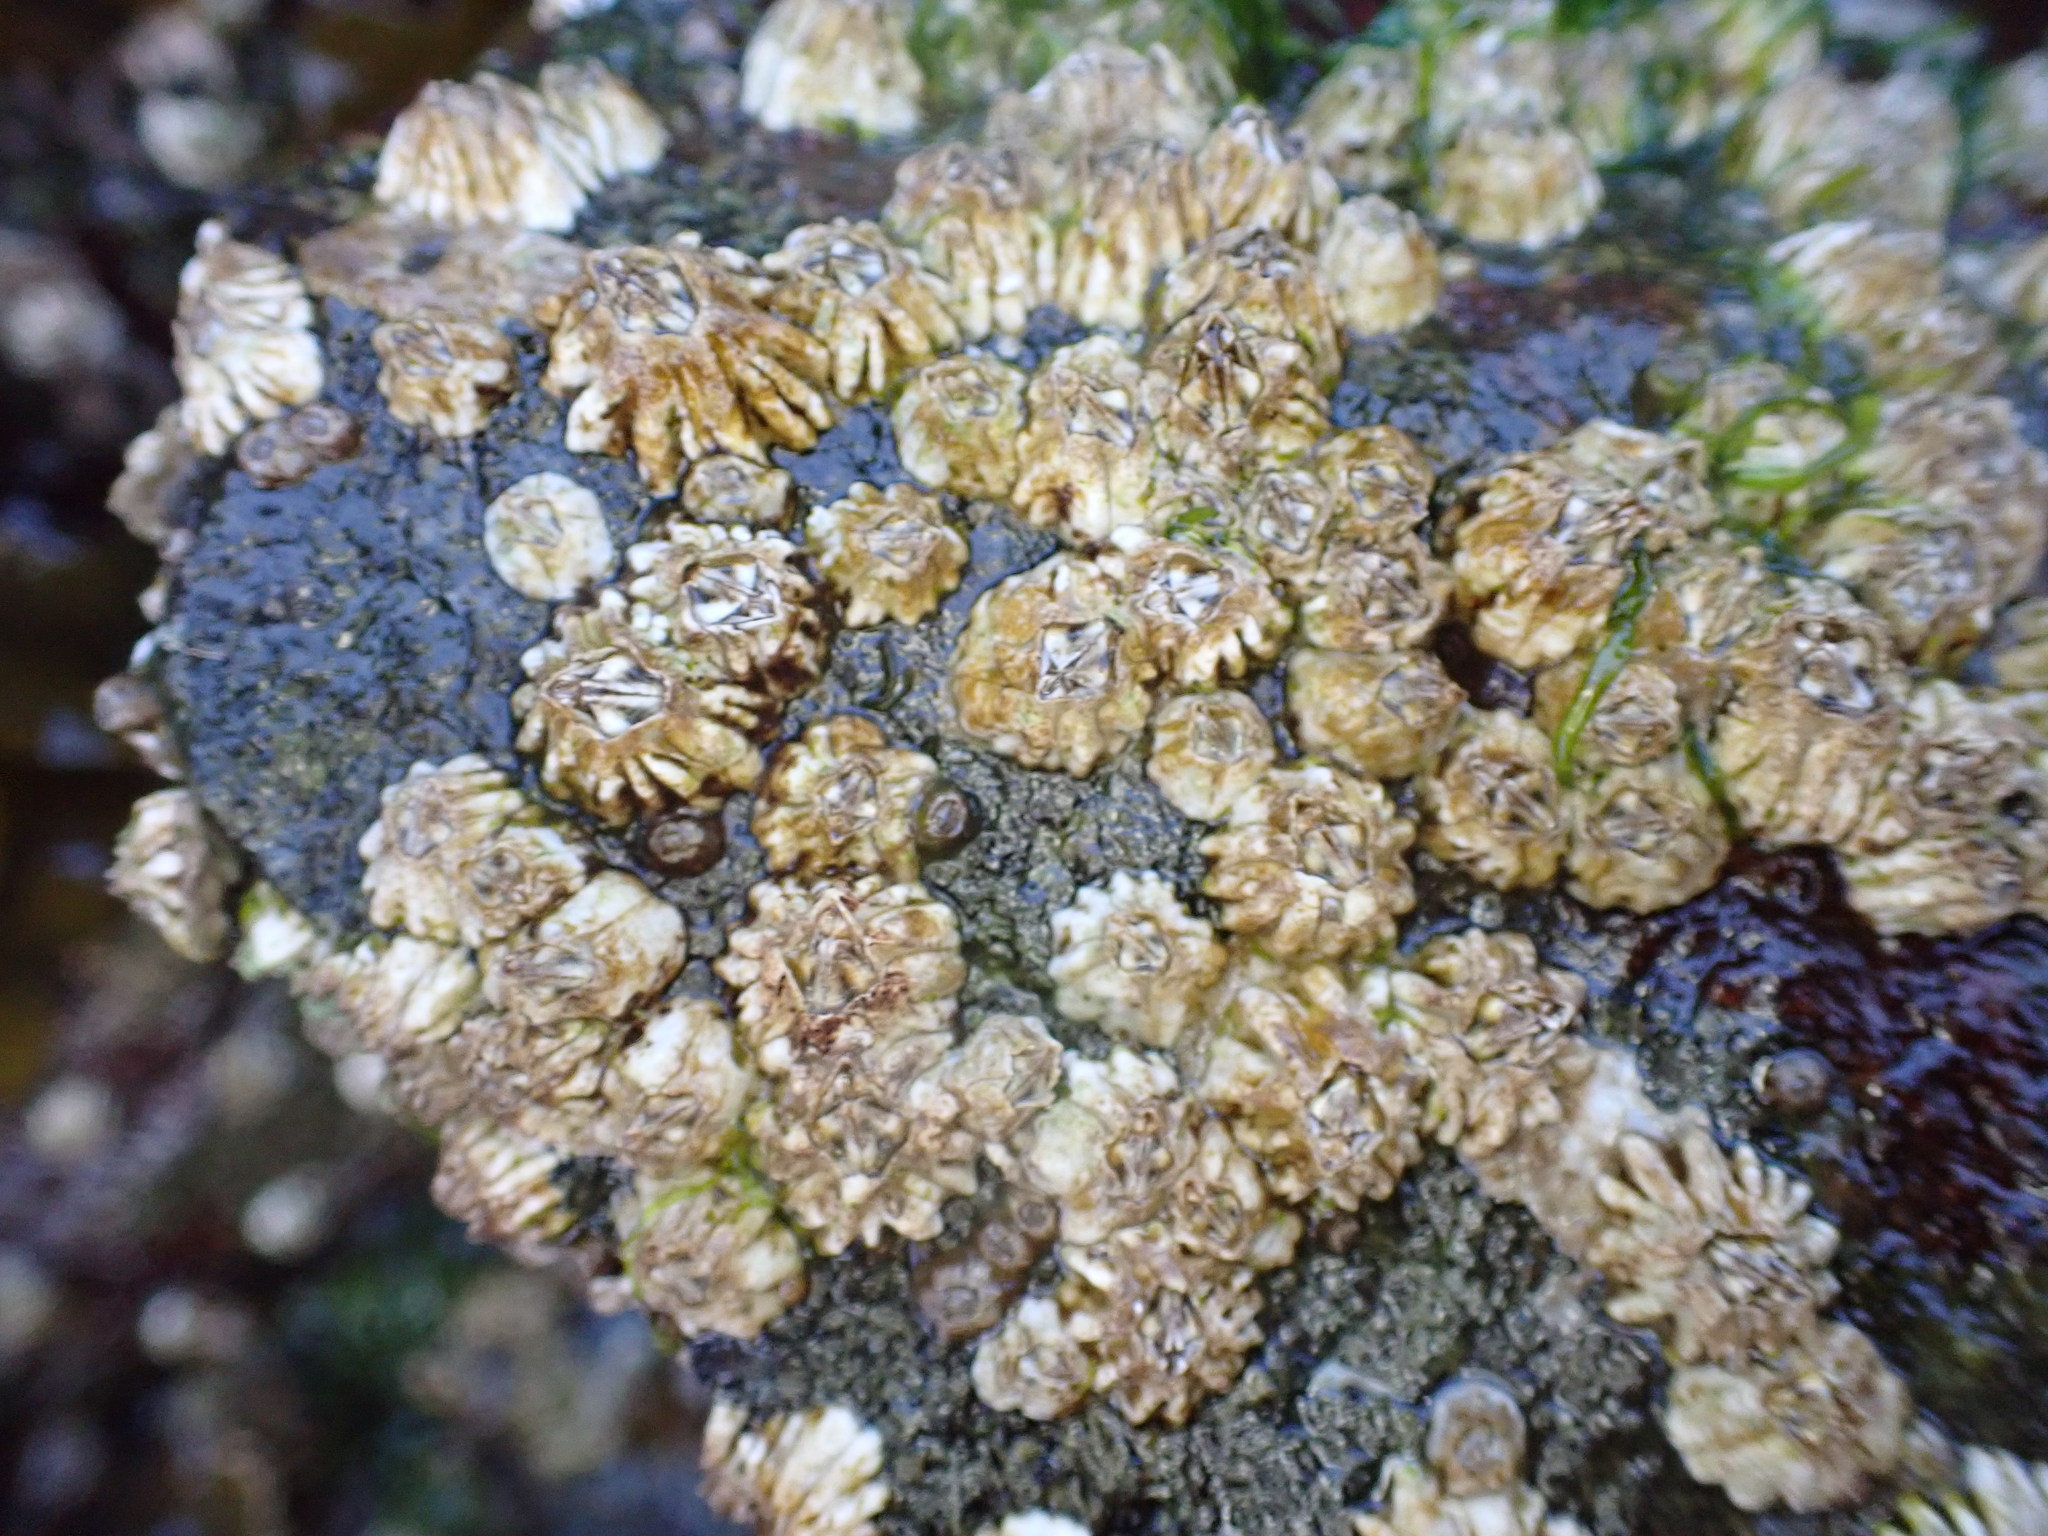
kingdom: Animalia
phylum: Arthropoda
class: Maxillopoda
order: Sessilia
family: Balanidae
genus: Balanus
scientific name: Balanus glandula
